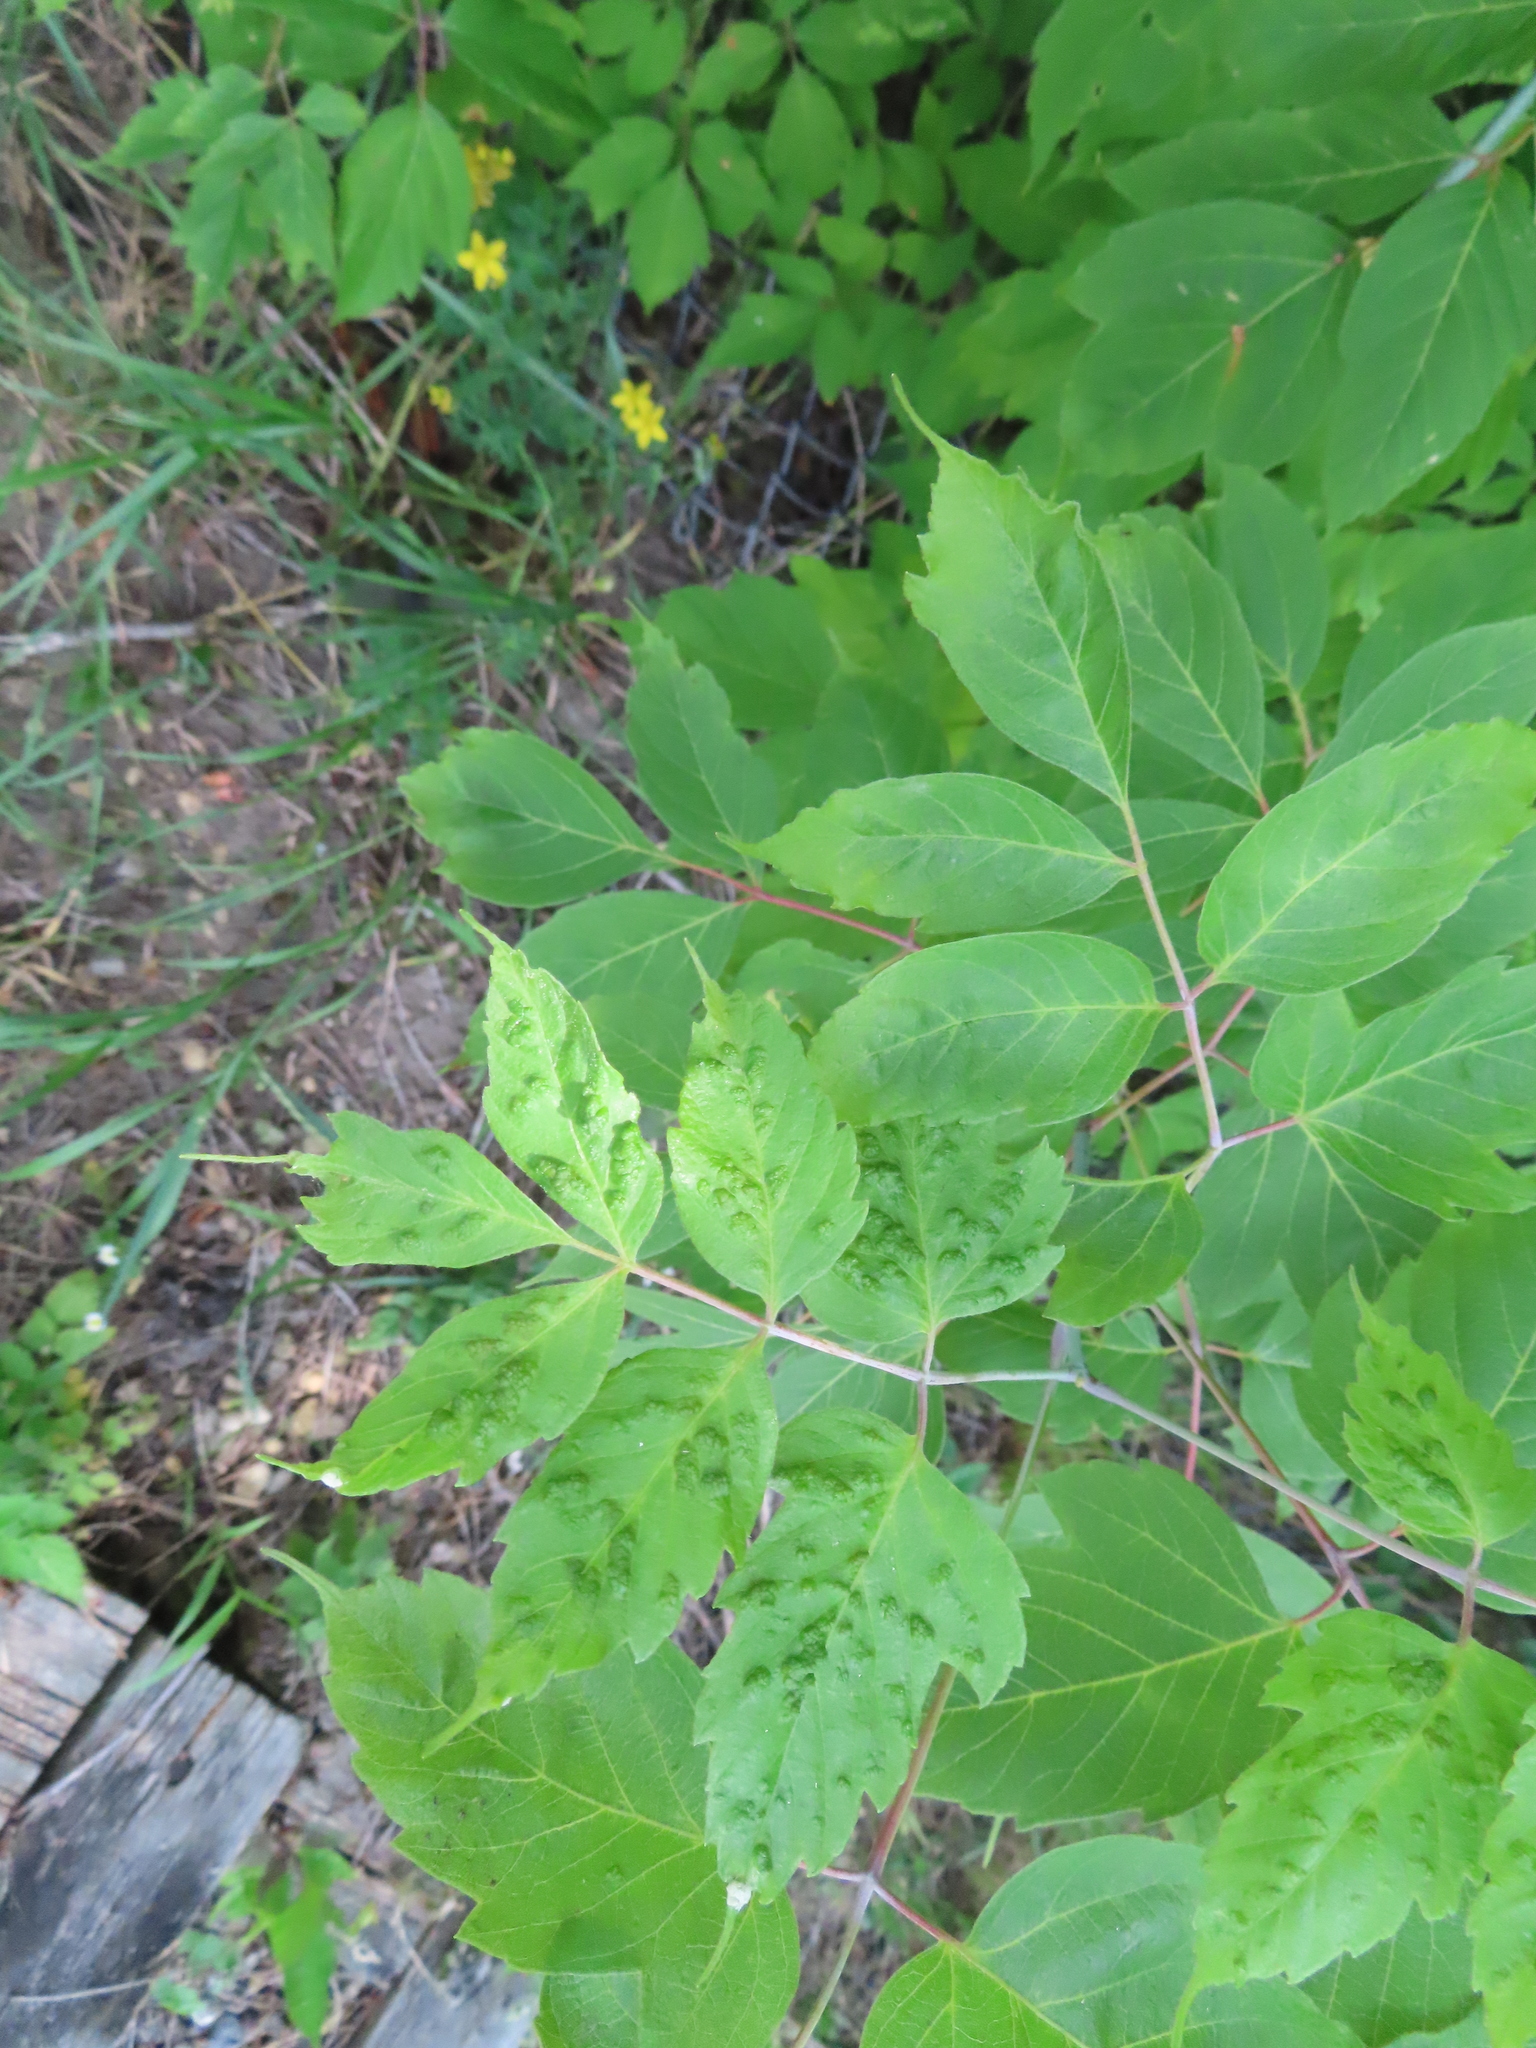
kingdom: Animalia
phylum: Arthropoda
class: Arachnida
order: Trombidiformes
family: Eriophyidae
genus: Aceria
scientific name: Aceria
